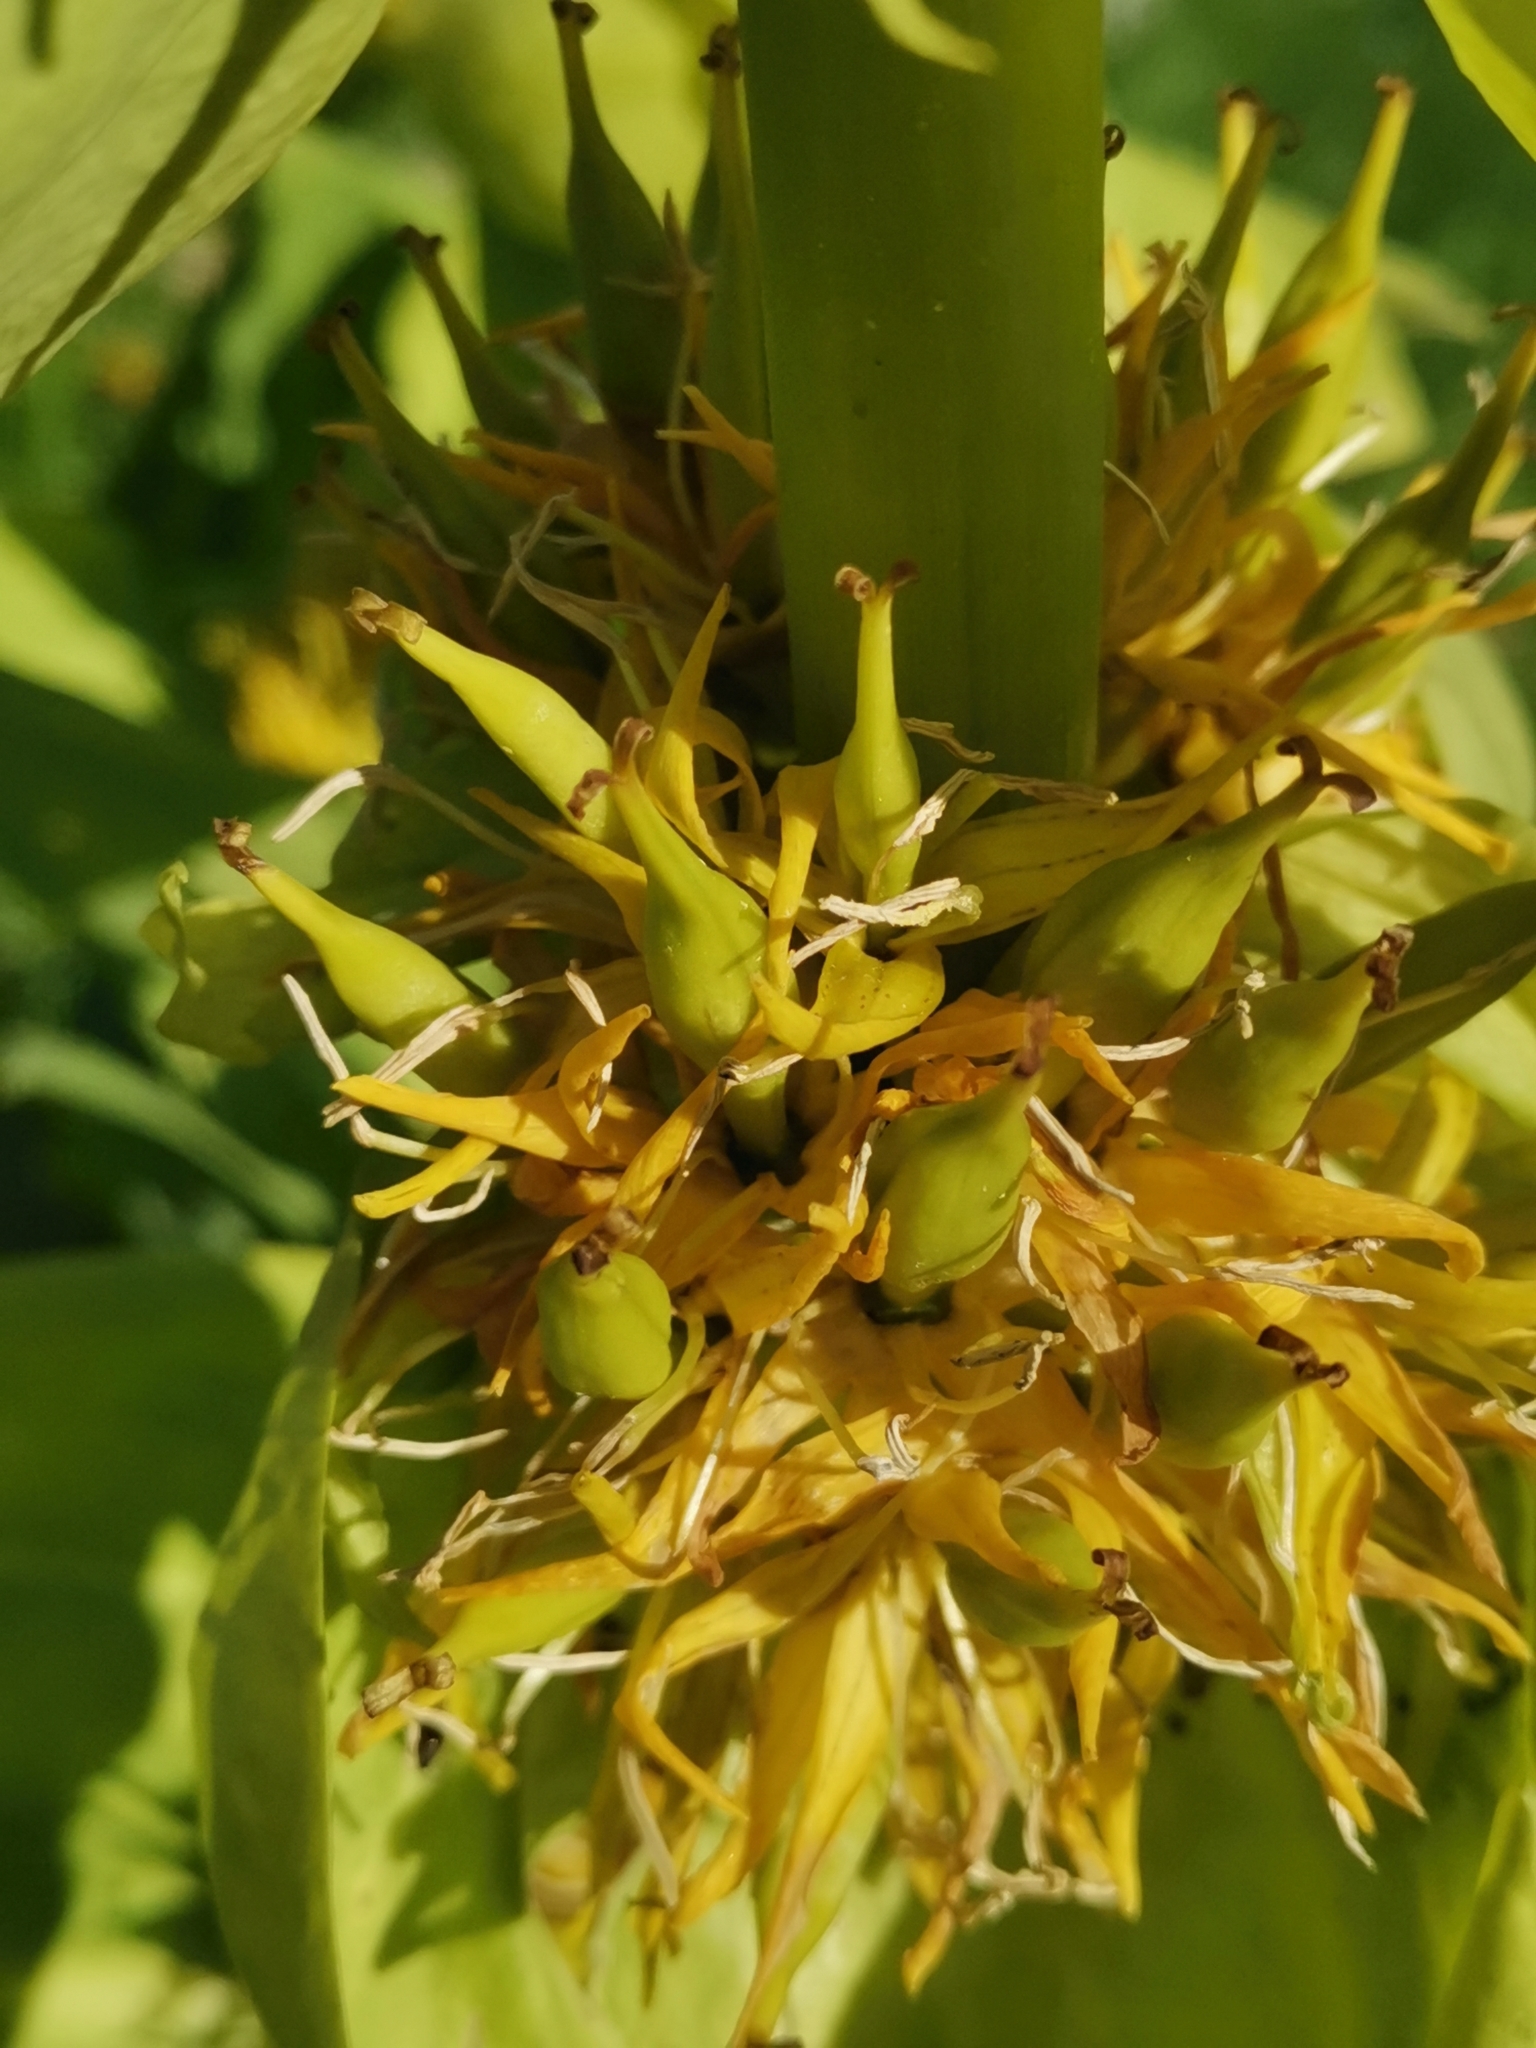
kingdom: Plantae
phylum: Tracheophyta
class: Magnoliopsida
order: Gentianales
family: Gentianaceae
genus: Gentiana
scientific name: Gentiana lutea
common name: Great yellow gentian
